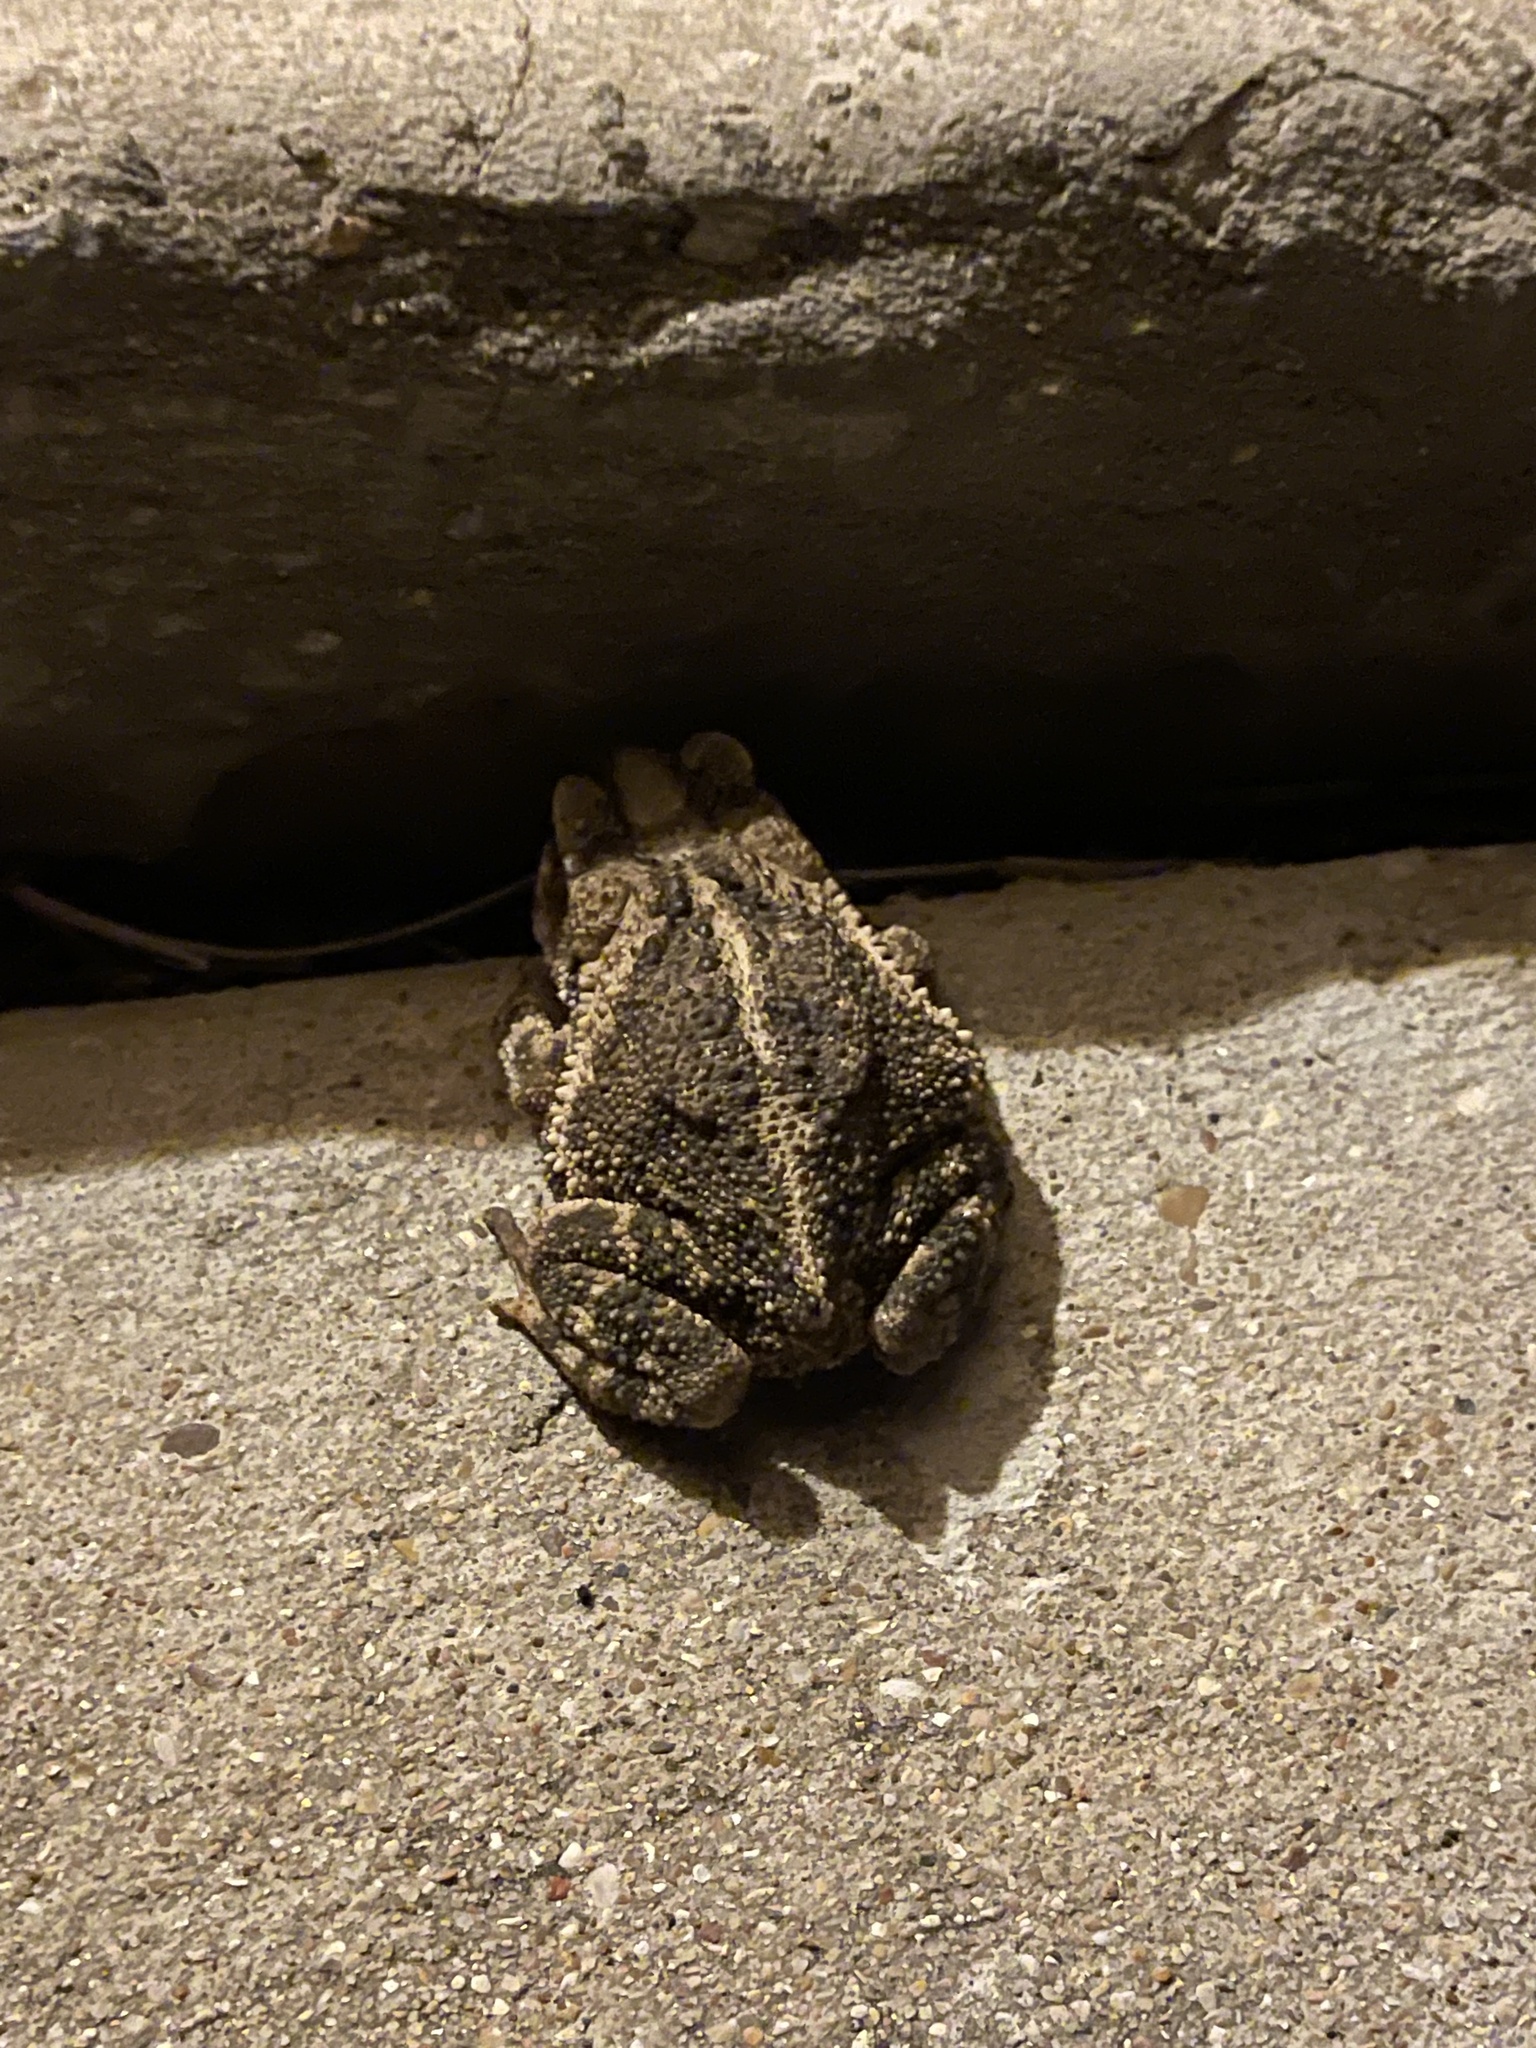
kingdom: Animalia
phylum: Chordata
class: Amphibia
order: Anura
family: Bufonidae
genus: Incilius
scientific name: Incilius nebulifer
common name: Gulf coast toad
